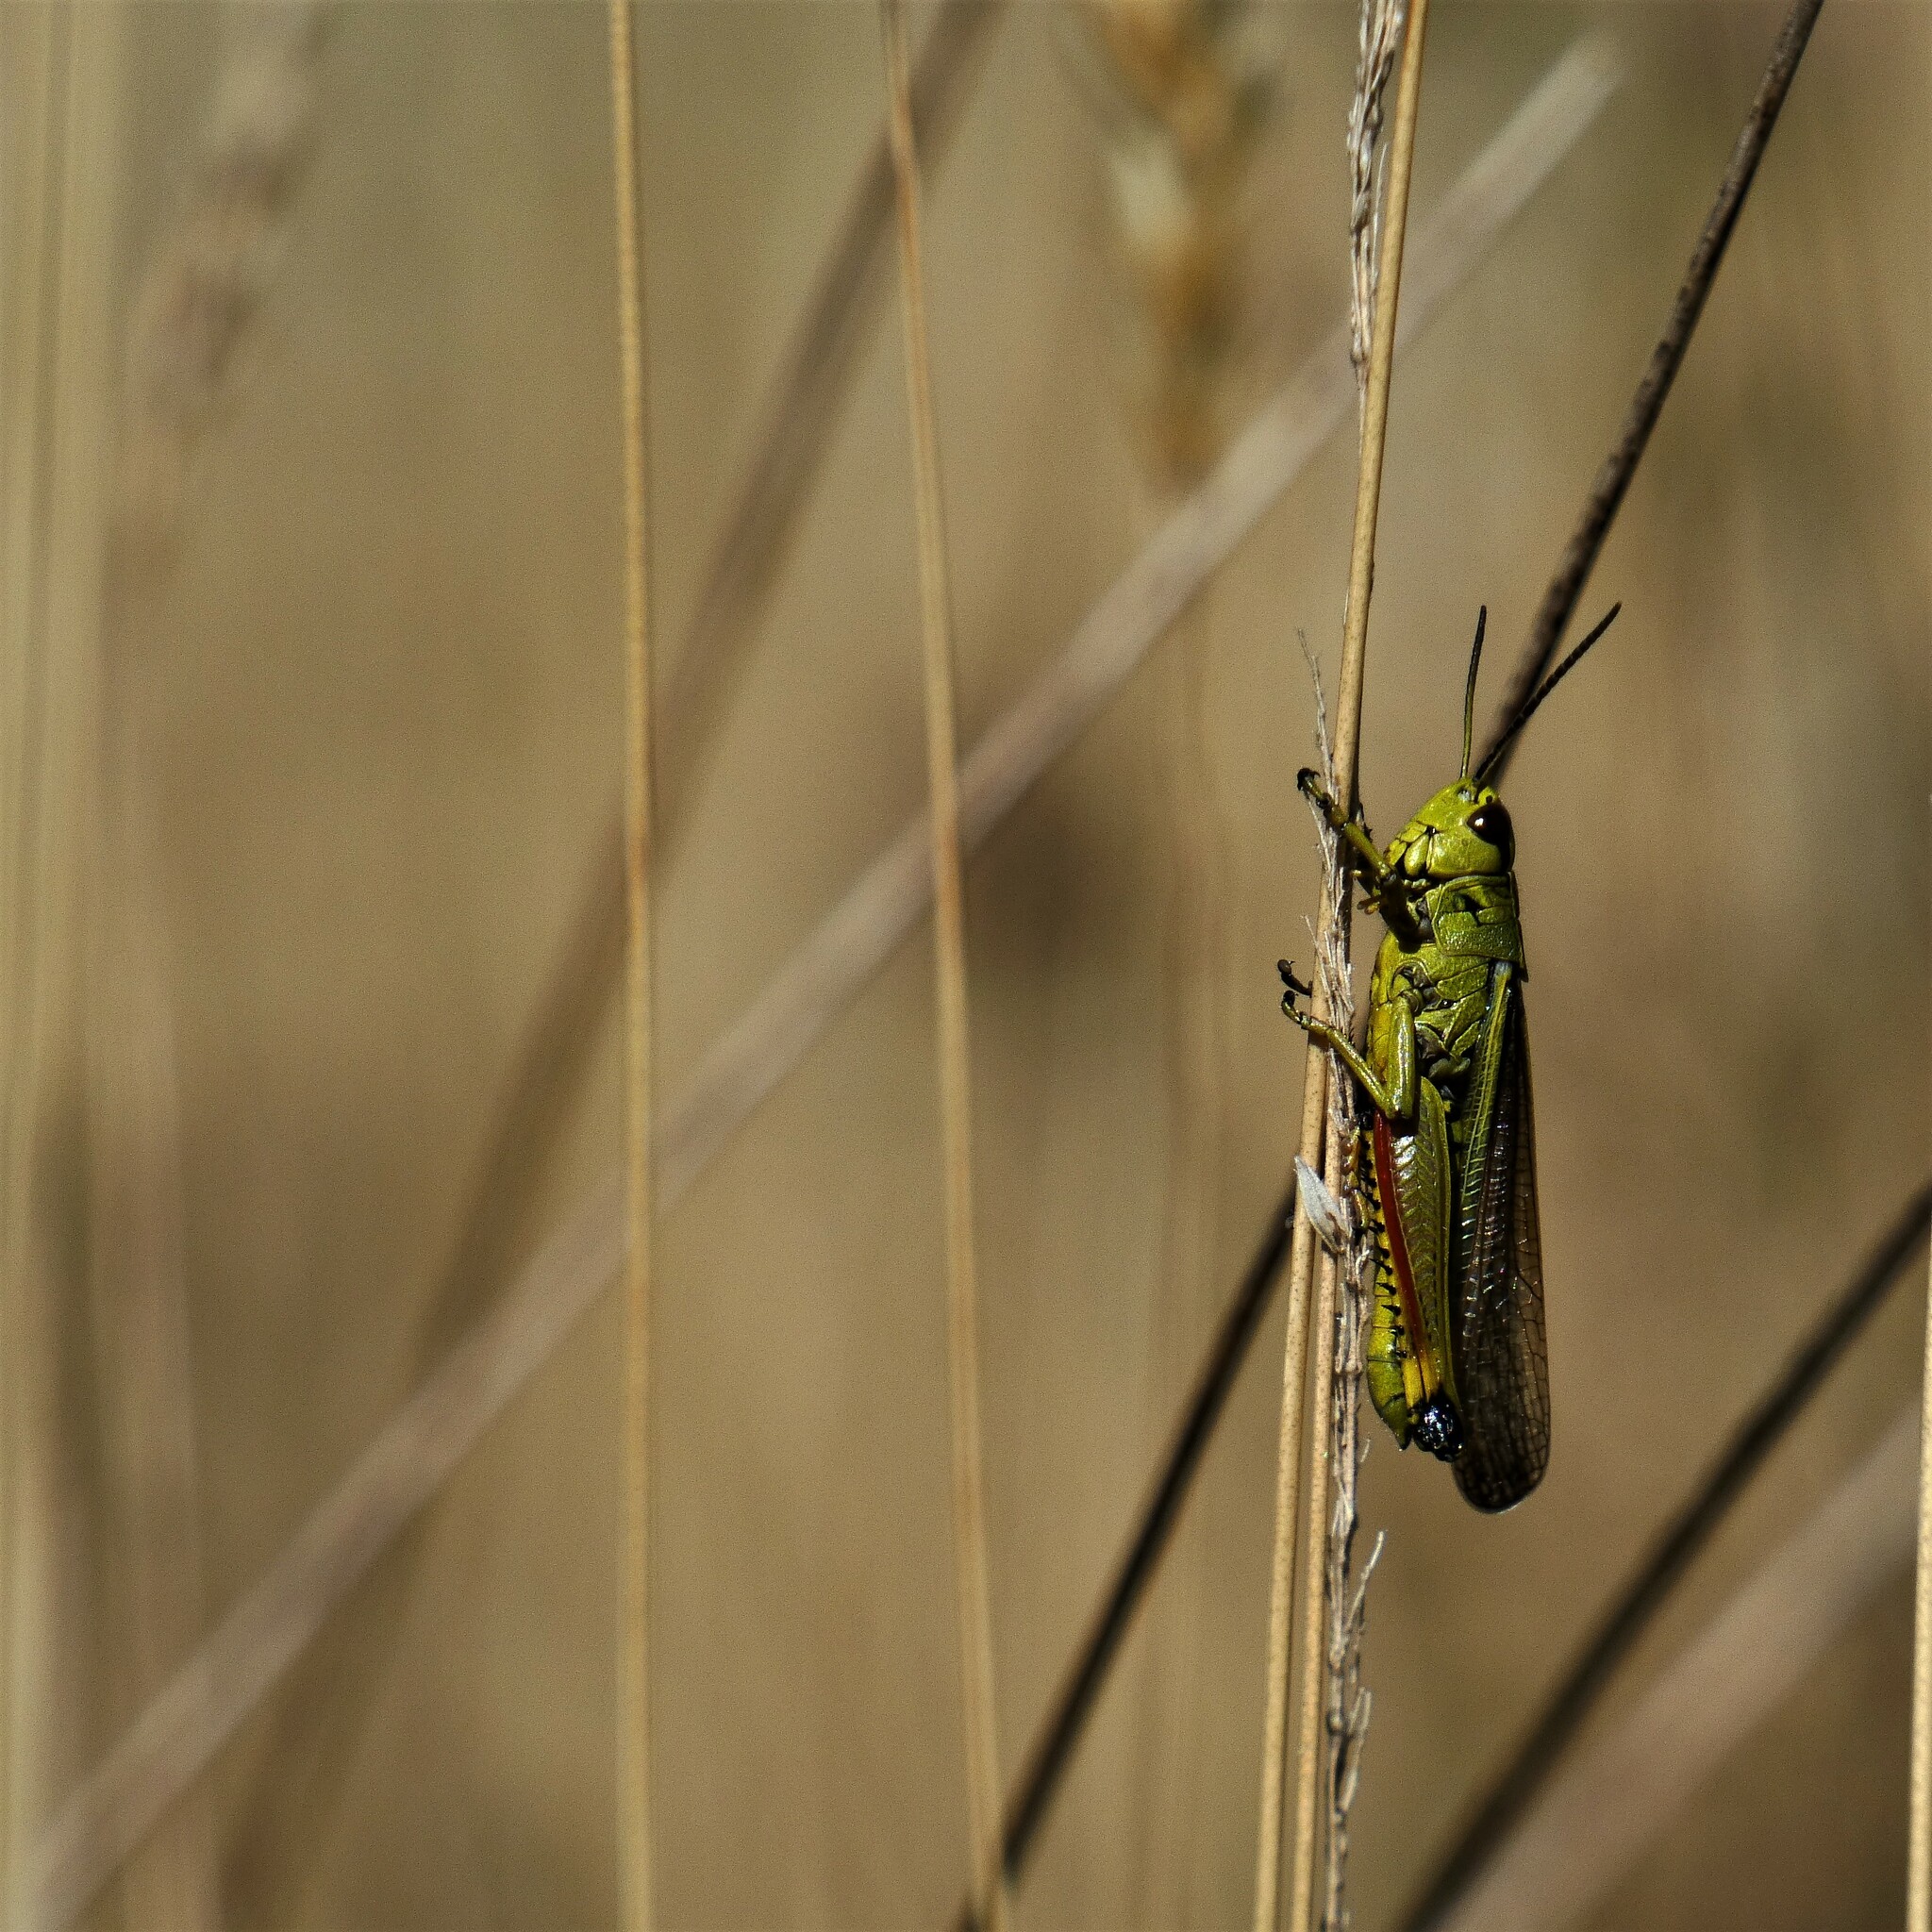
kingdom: Animalia
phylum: Arthropoda
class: Insecta
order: Orthoptera
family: Acrididae
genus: Stethophyma
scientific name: Stethophyma grossum
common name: Large marsh grasshopper
